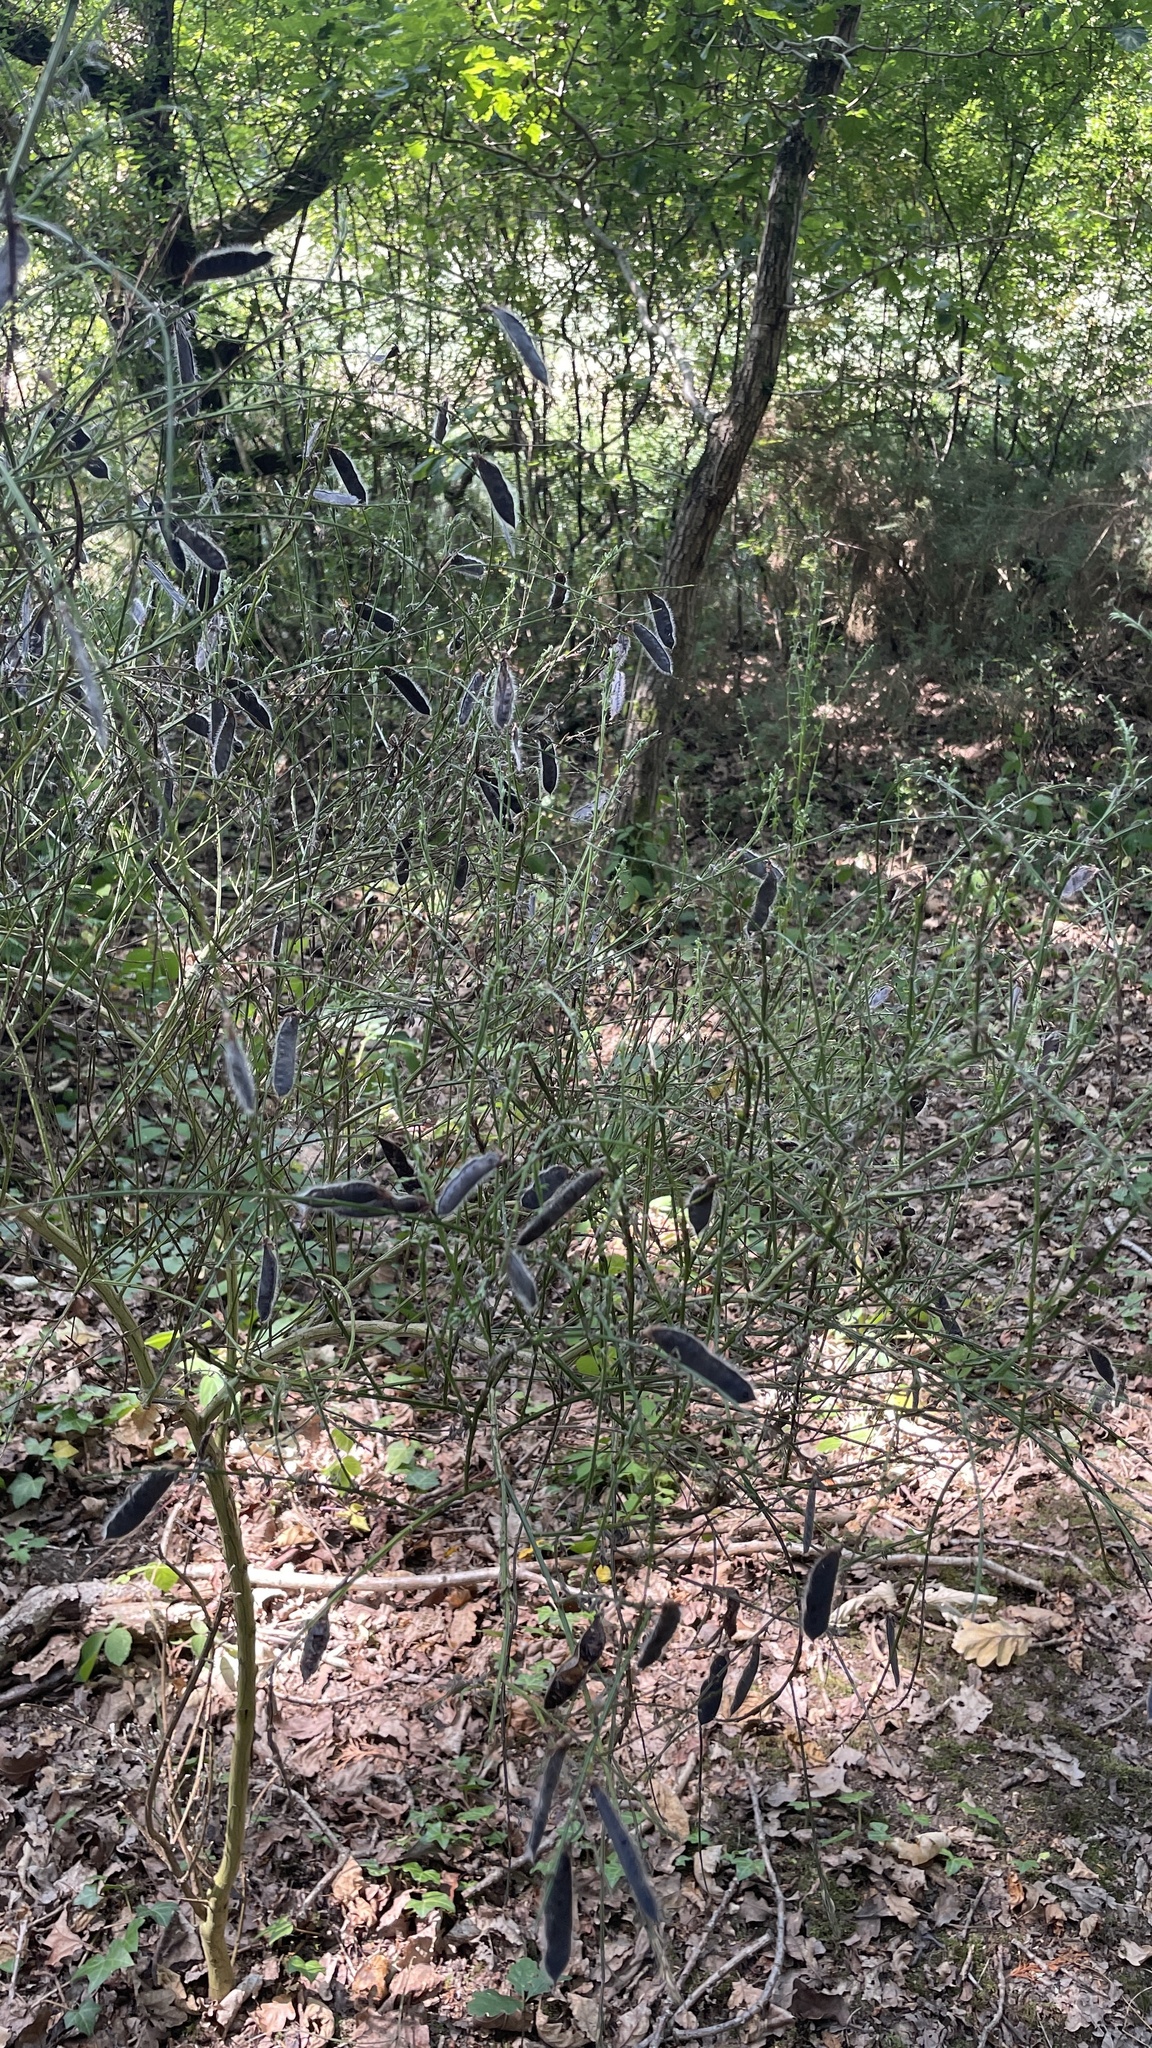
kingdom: Plantae
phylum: Tracheophyta
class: Magnoliopsida
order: Fabales
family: Fabaceae
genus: Cytisus
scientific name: Cytisus scoparius
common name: Scotch broom
